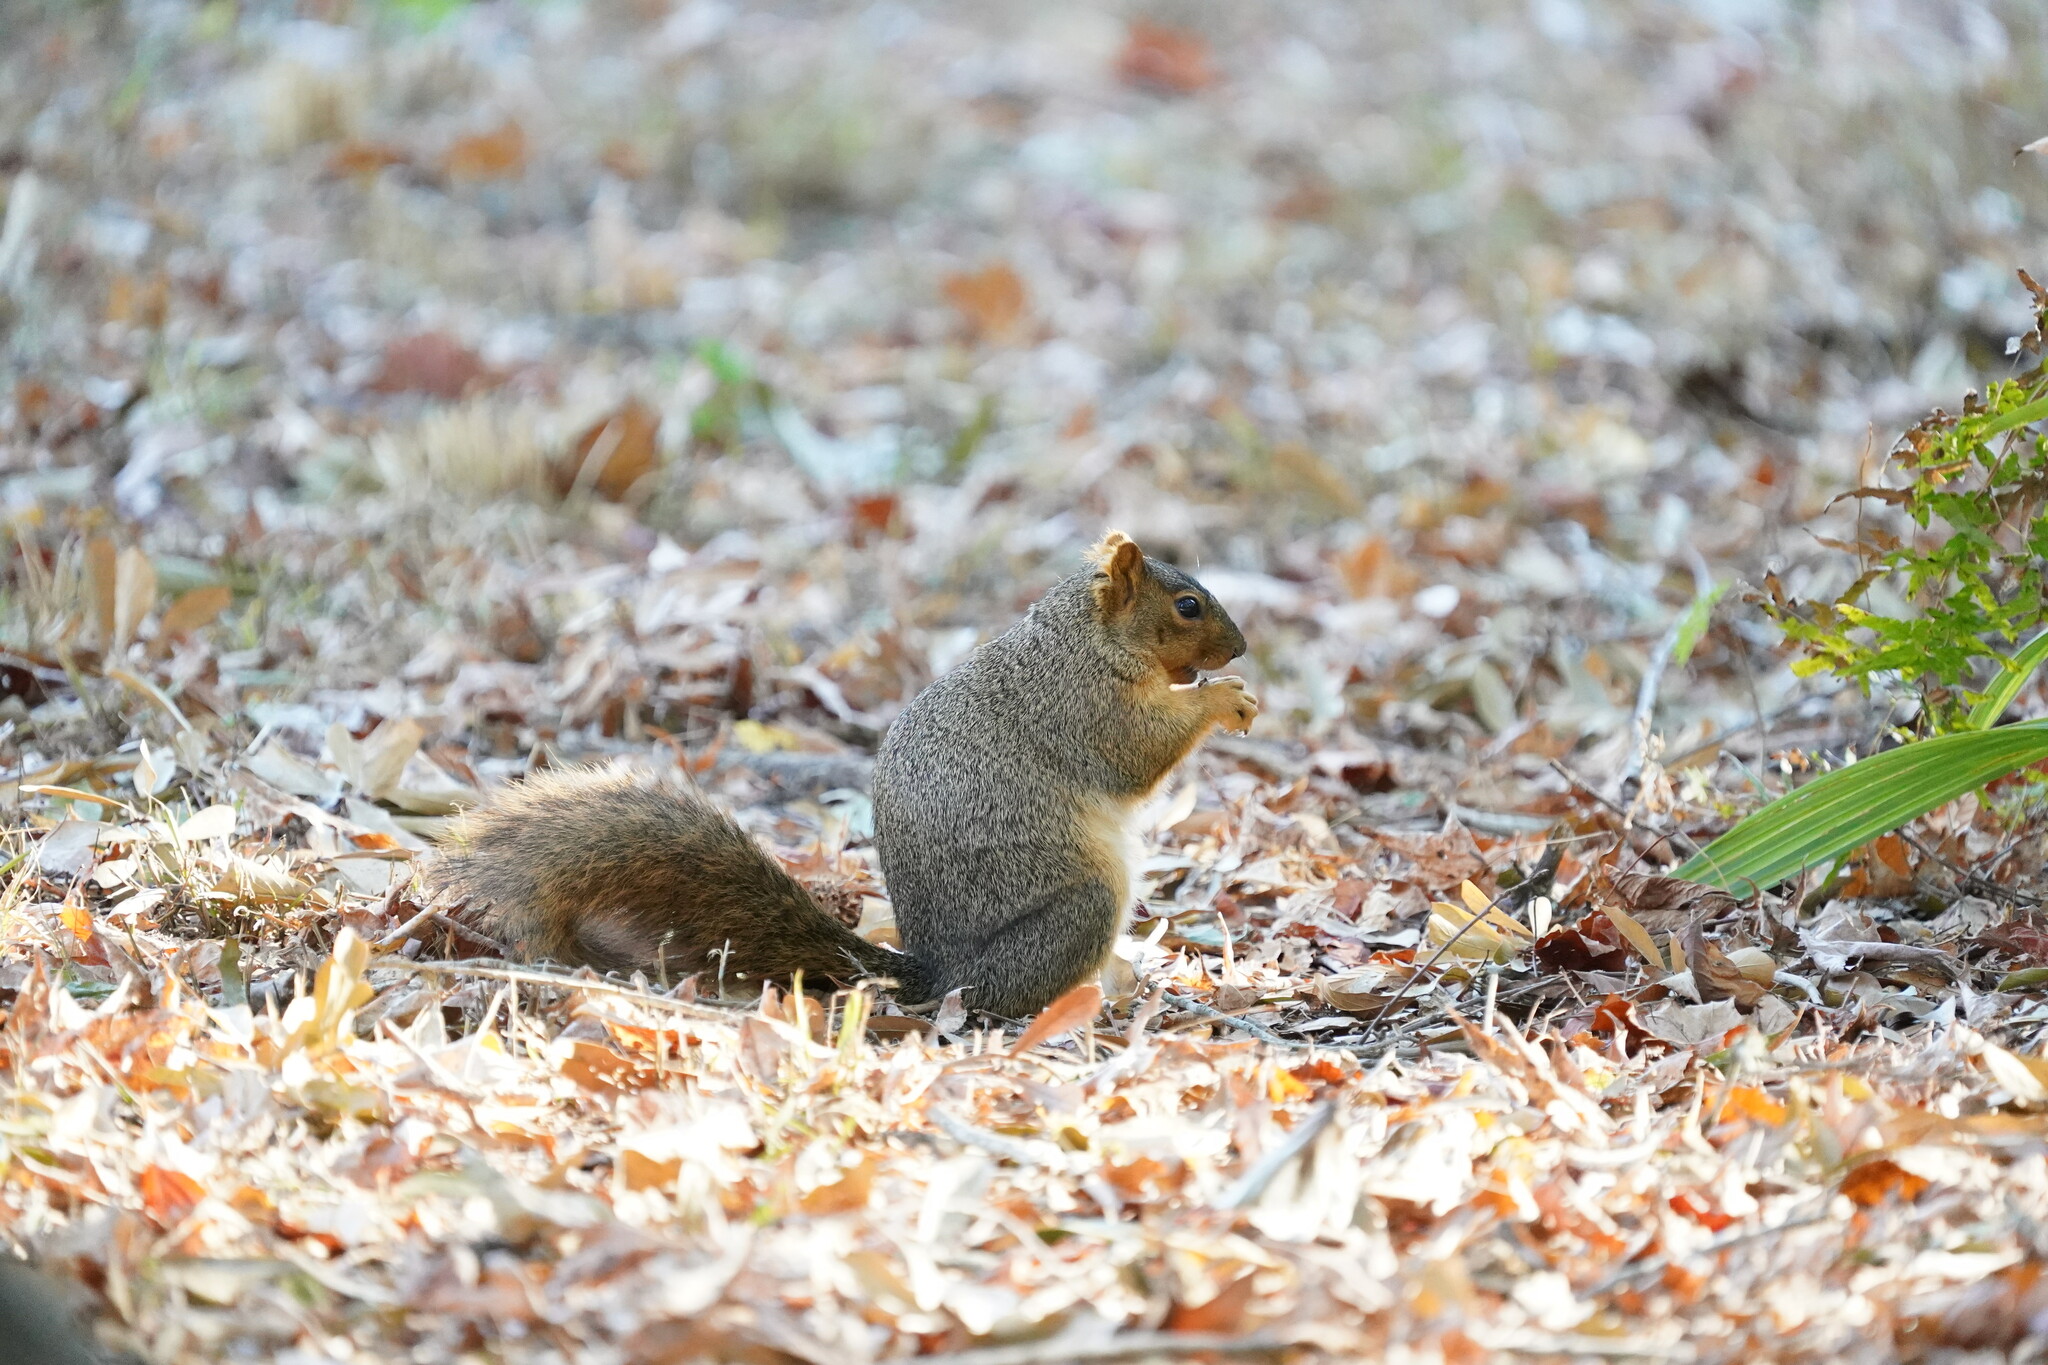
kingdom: Animalia
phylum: Chordata
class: Mammalia
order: Rodentia
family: Sciuridae
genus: Sciurus
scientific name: Sciurus niger
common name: Fox squirrel
